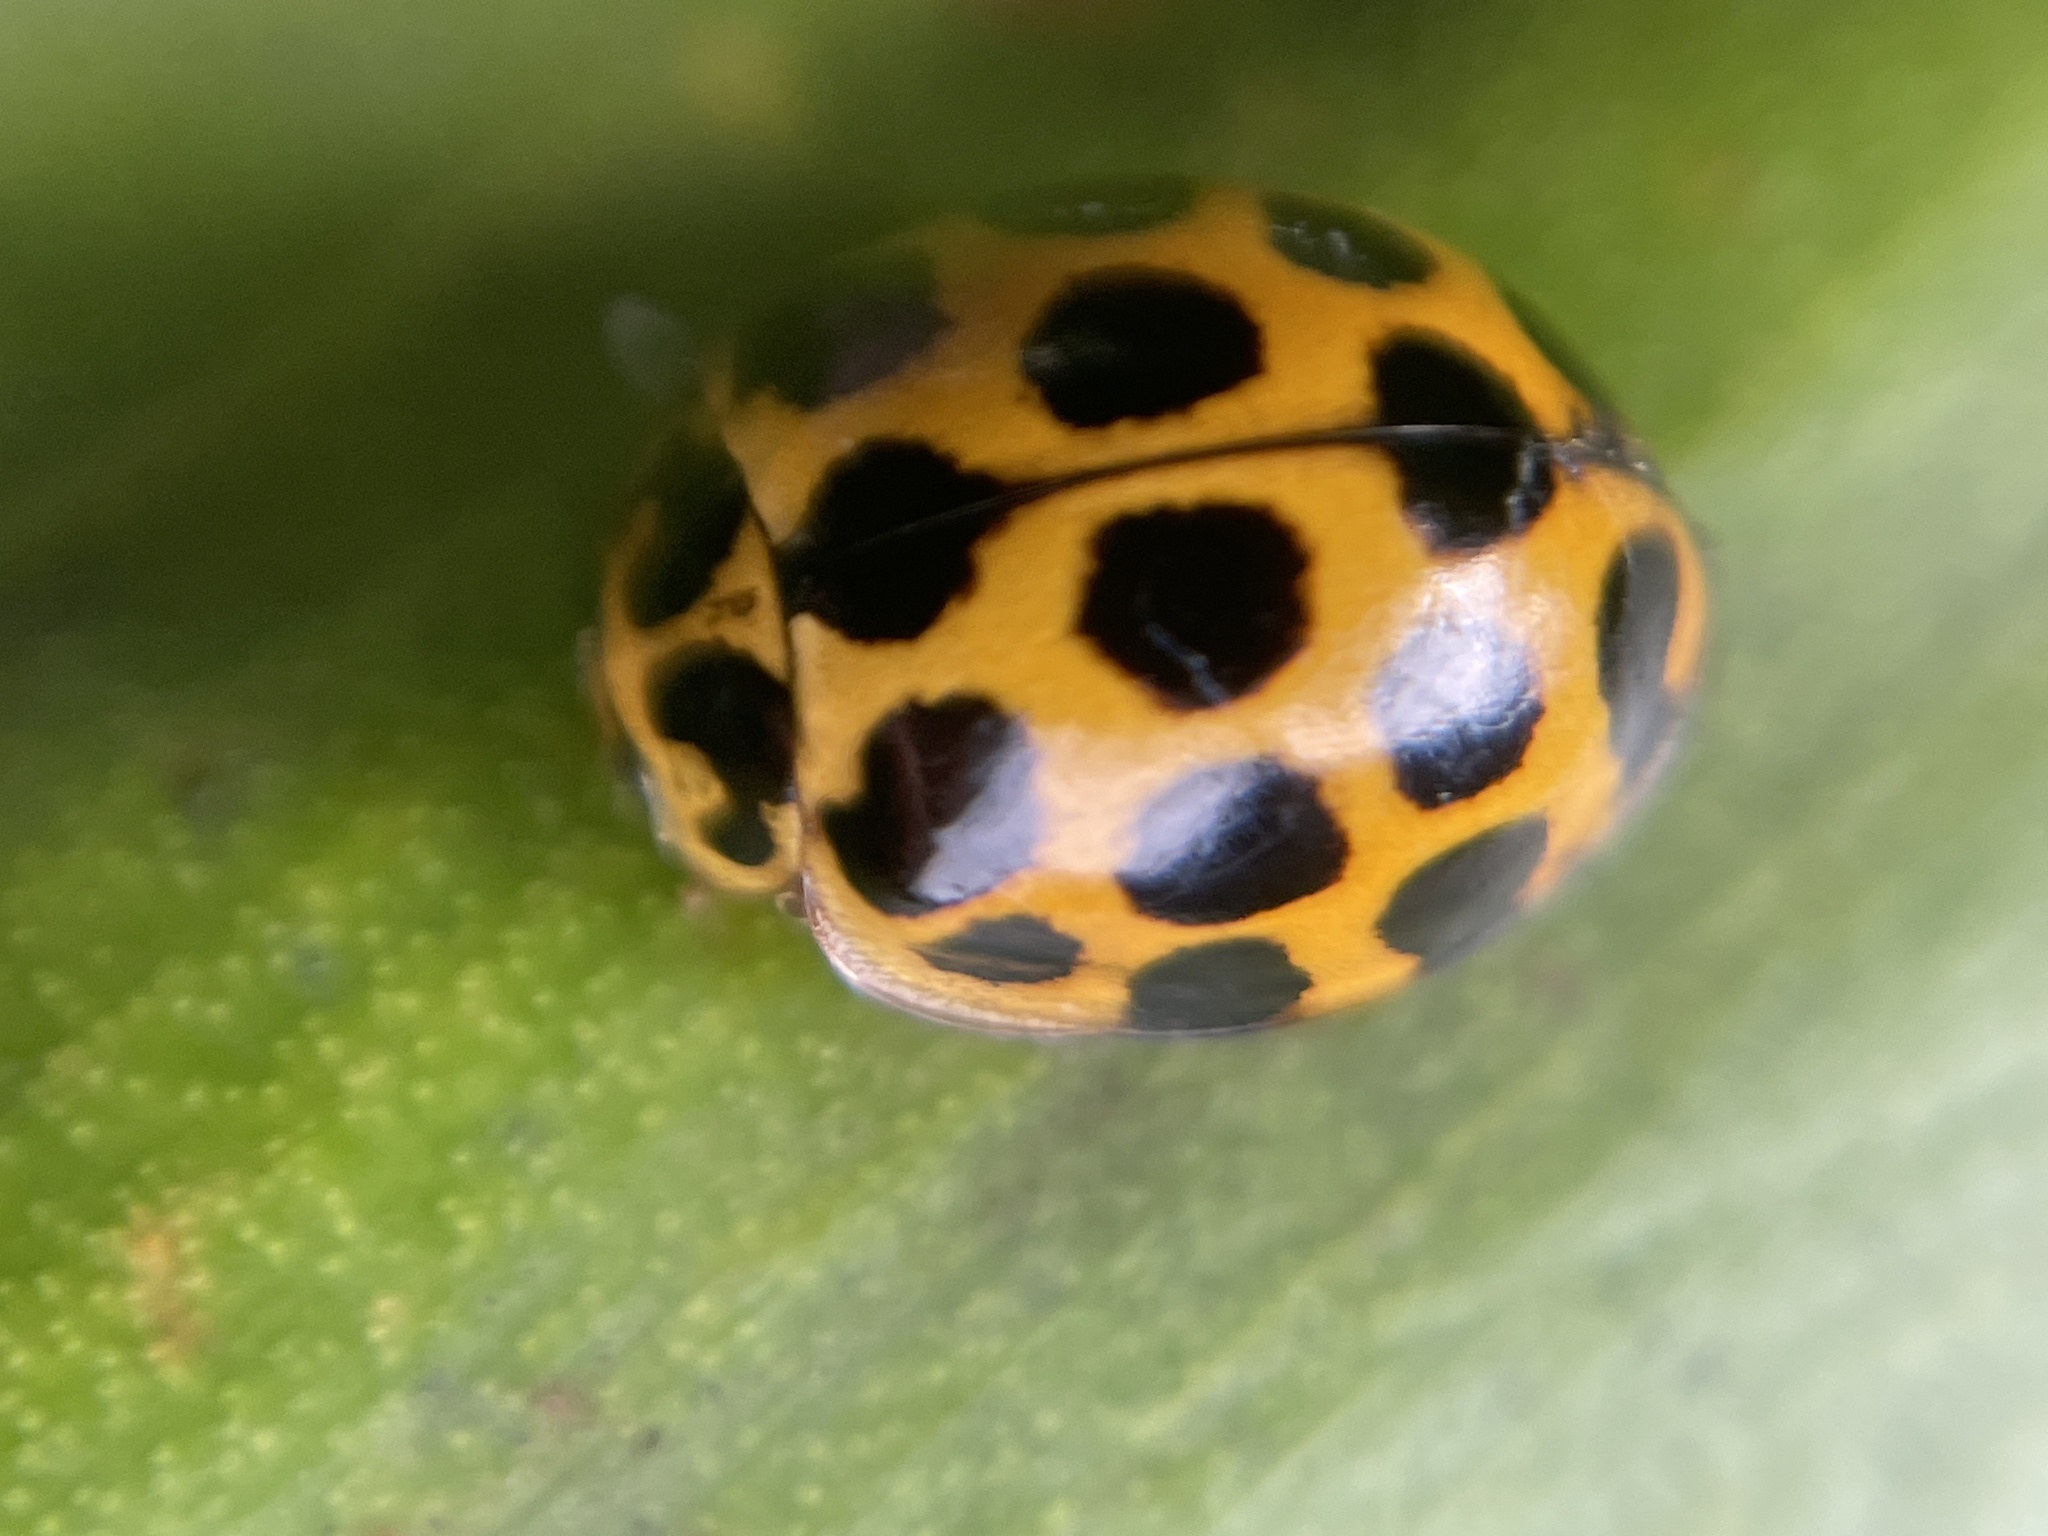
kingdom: Animalia
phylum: Arthropoda
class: Insecta
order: Coleoptera
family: Coccinellidae
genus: Harmonia
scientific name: Harmonia conformis
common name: Common spotted ladybird beetle
